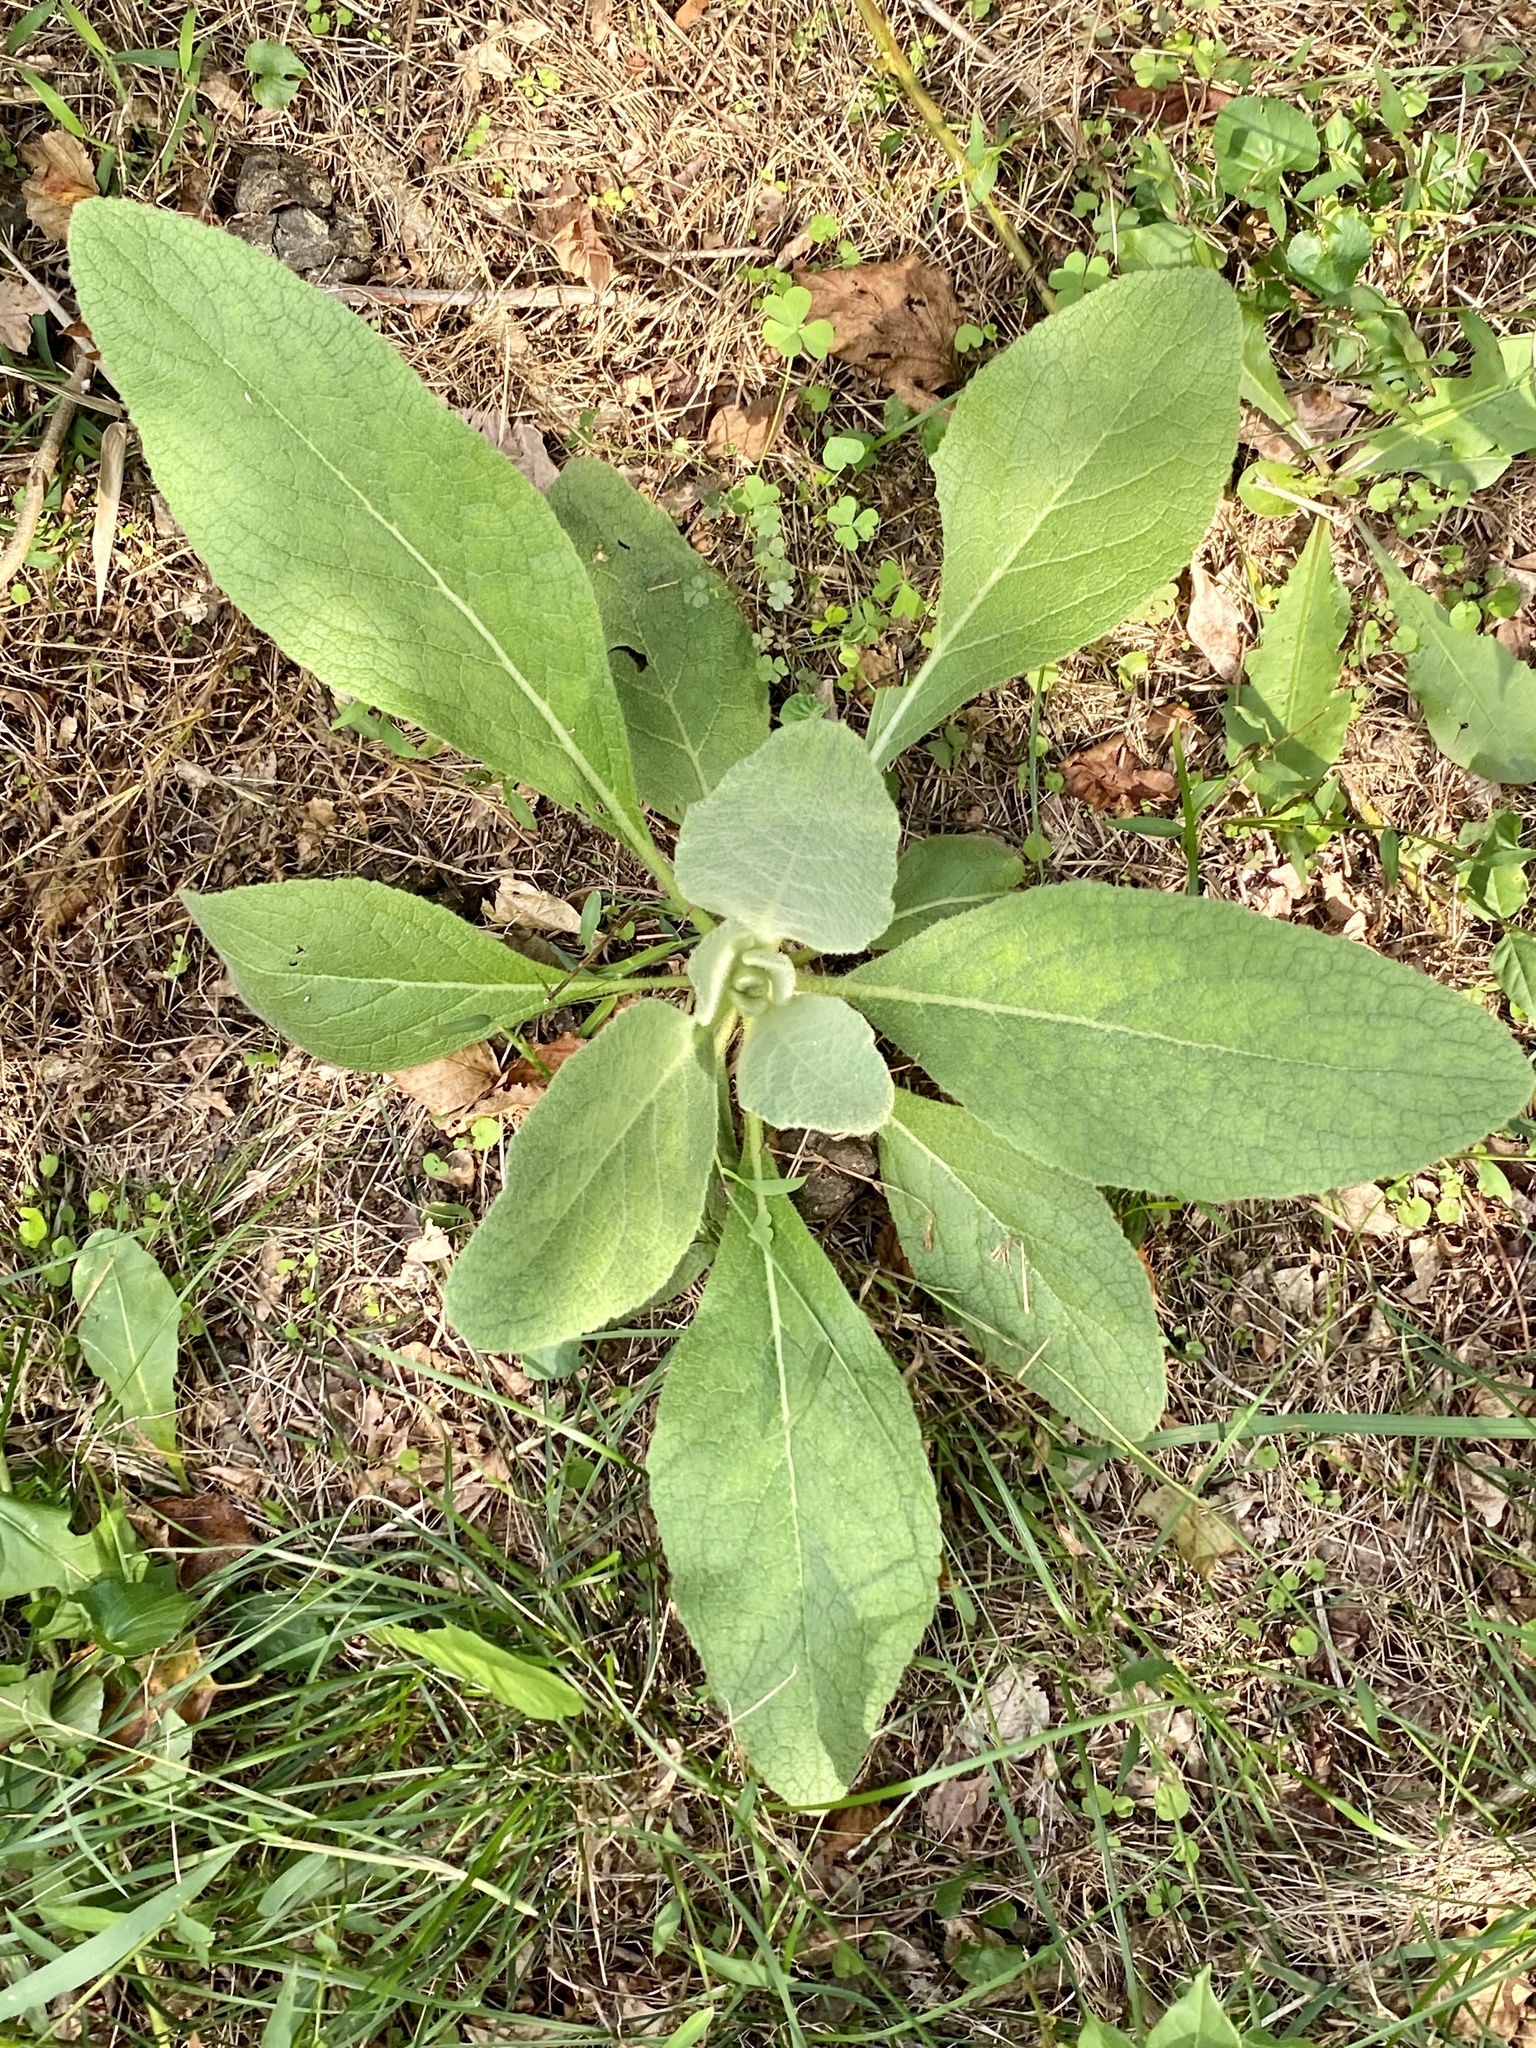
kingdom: Plantae
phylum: Tracheophyta
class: Magnoliopsida
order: Lamiales
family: Scrophulariaceae
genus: Verbascum
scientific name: Verbascum thapsus
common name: Common mullein
